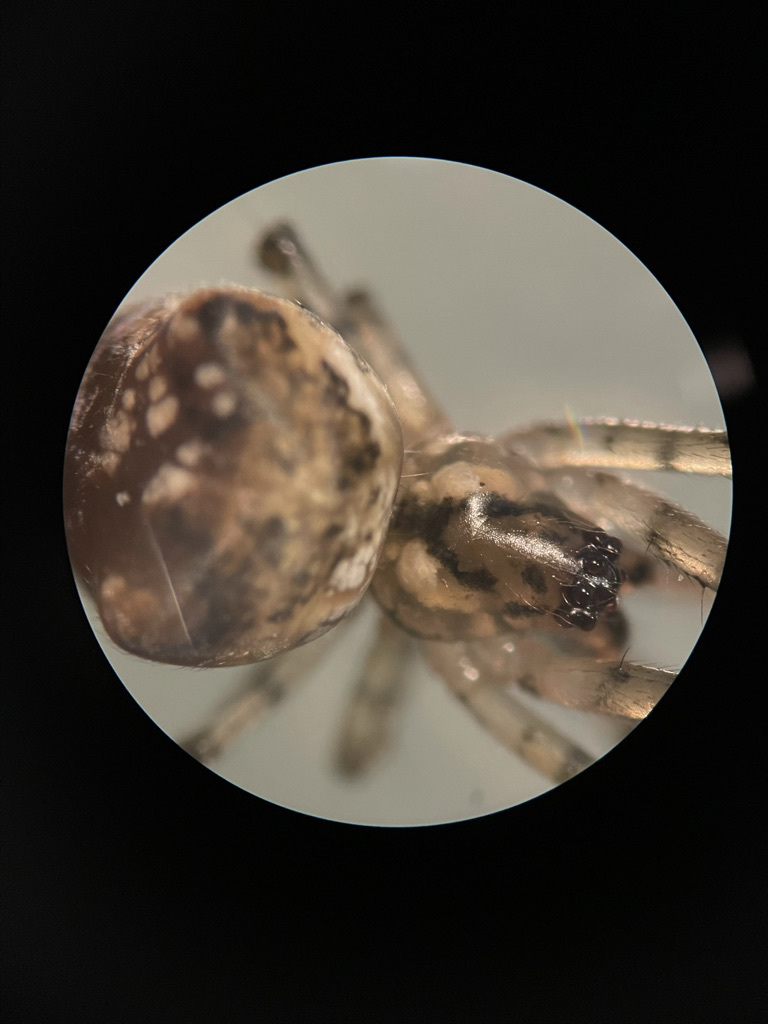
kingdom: Animalia
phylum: Arthropoda
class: Arachnida
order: Araneae
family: Tetragnathidae
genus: Metellina
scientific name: Metellina mimetoides
